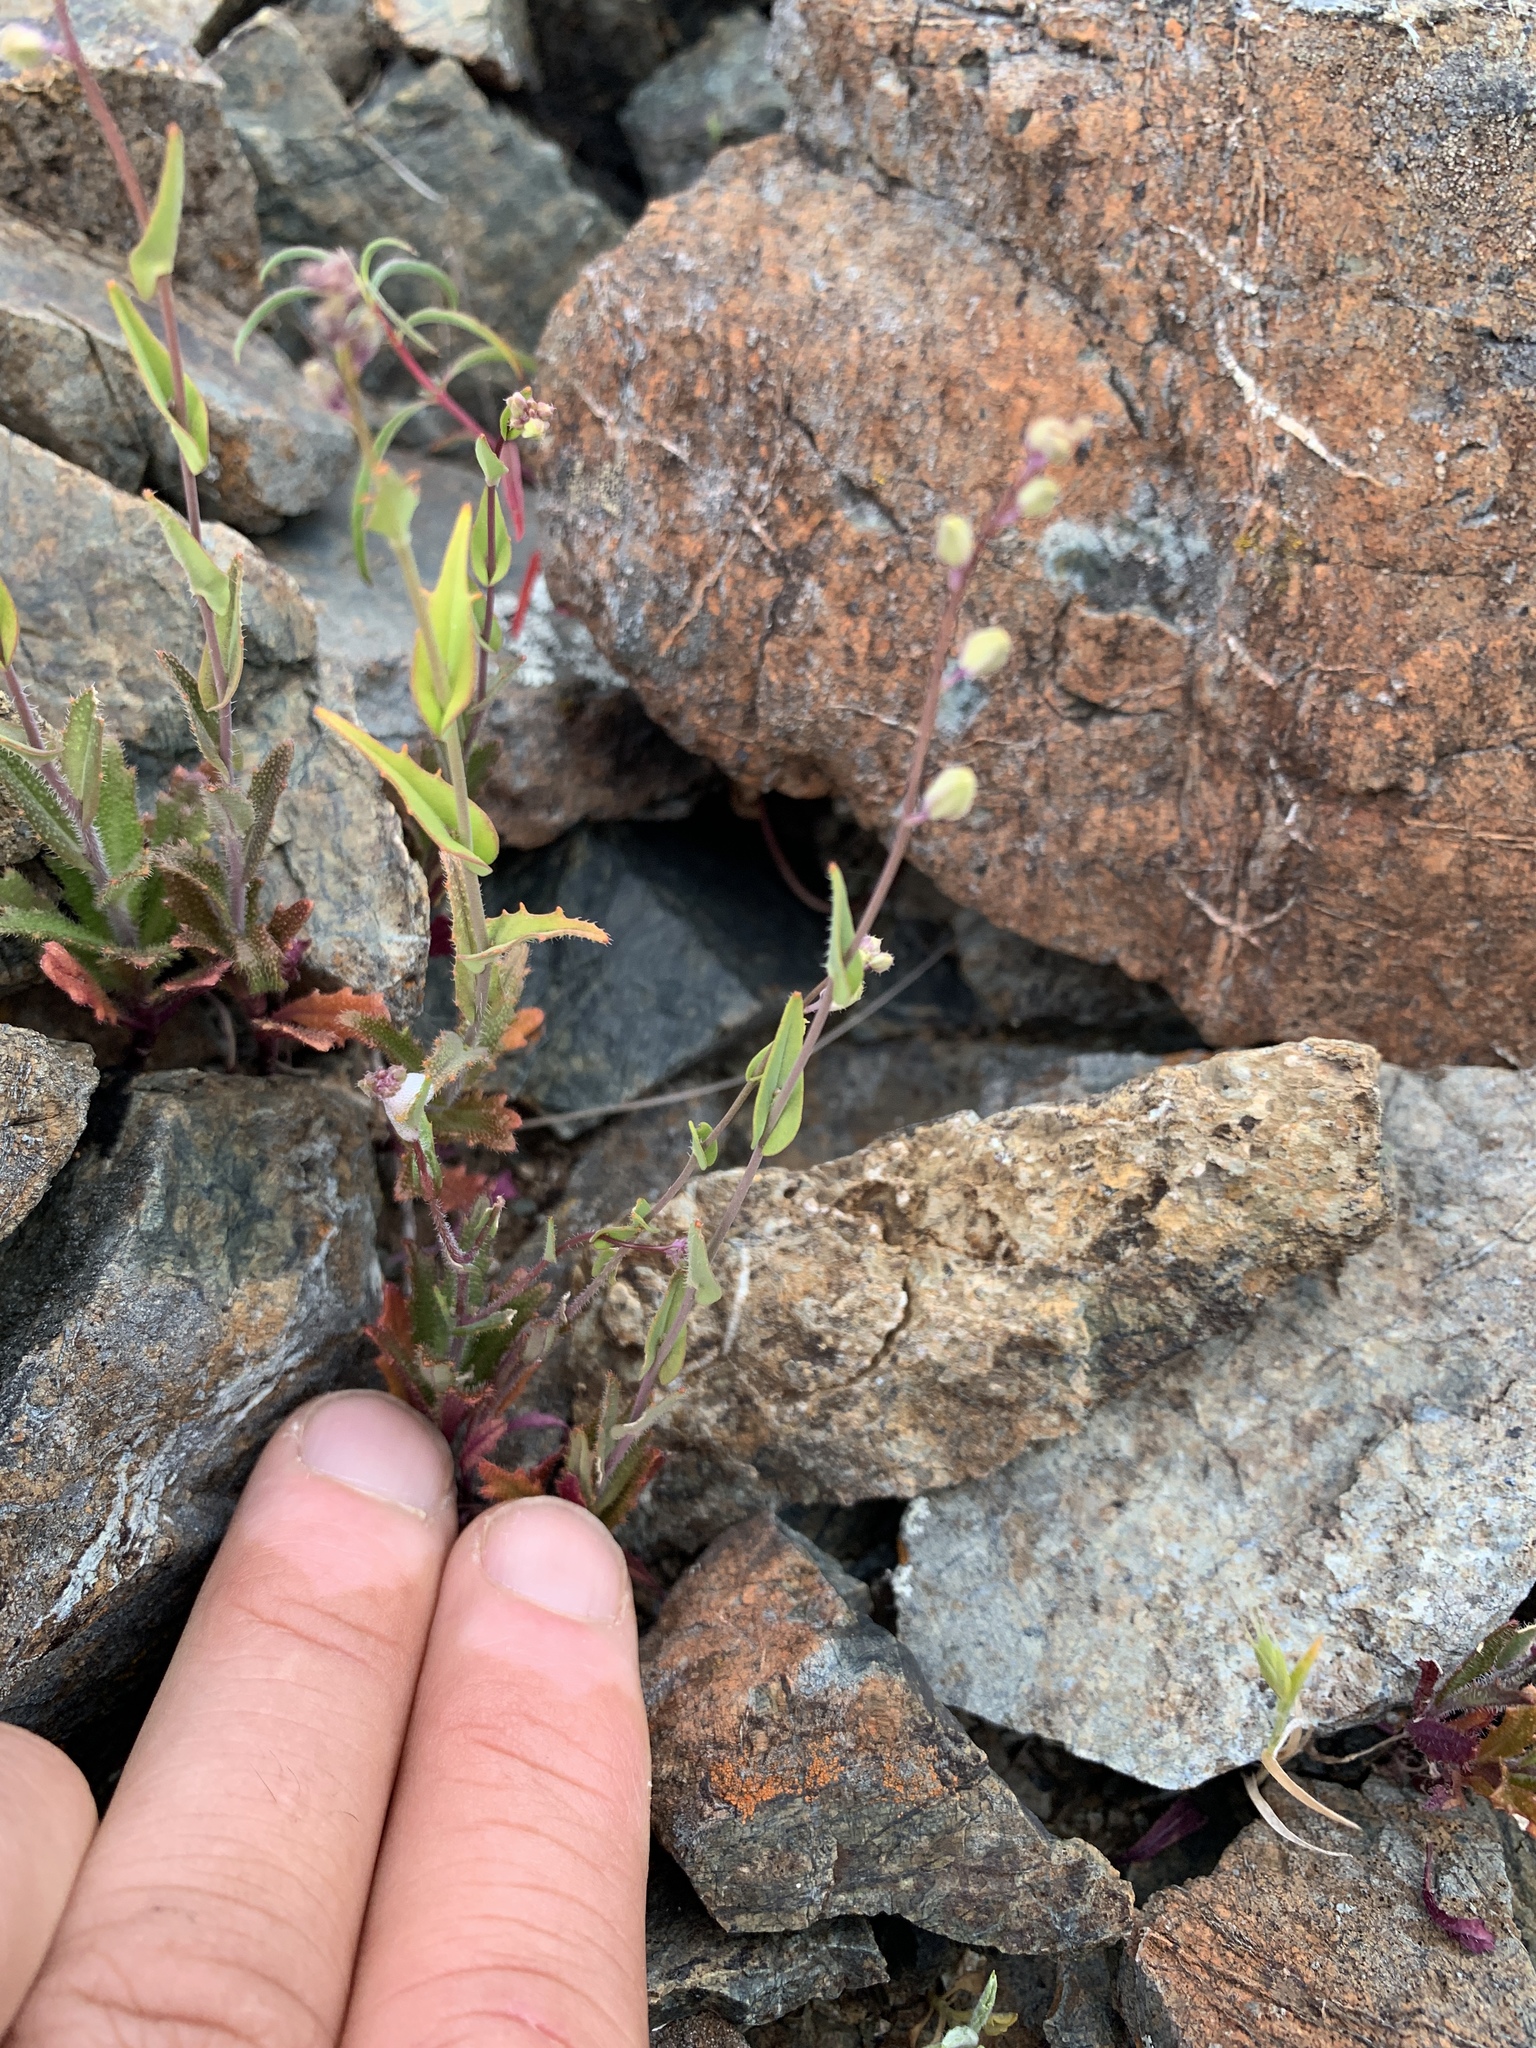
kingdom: Plantae
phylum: Tracheophyta
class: Magnoliopsida
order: Brassicales
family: Brassicaceae
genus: Streptanthus
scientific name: Streptanthus glandulosus
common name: Jewel-flower
